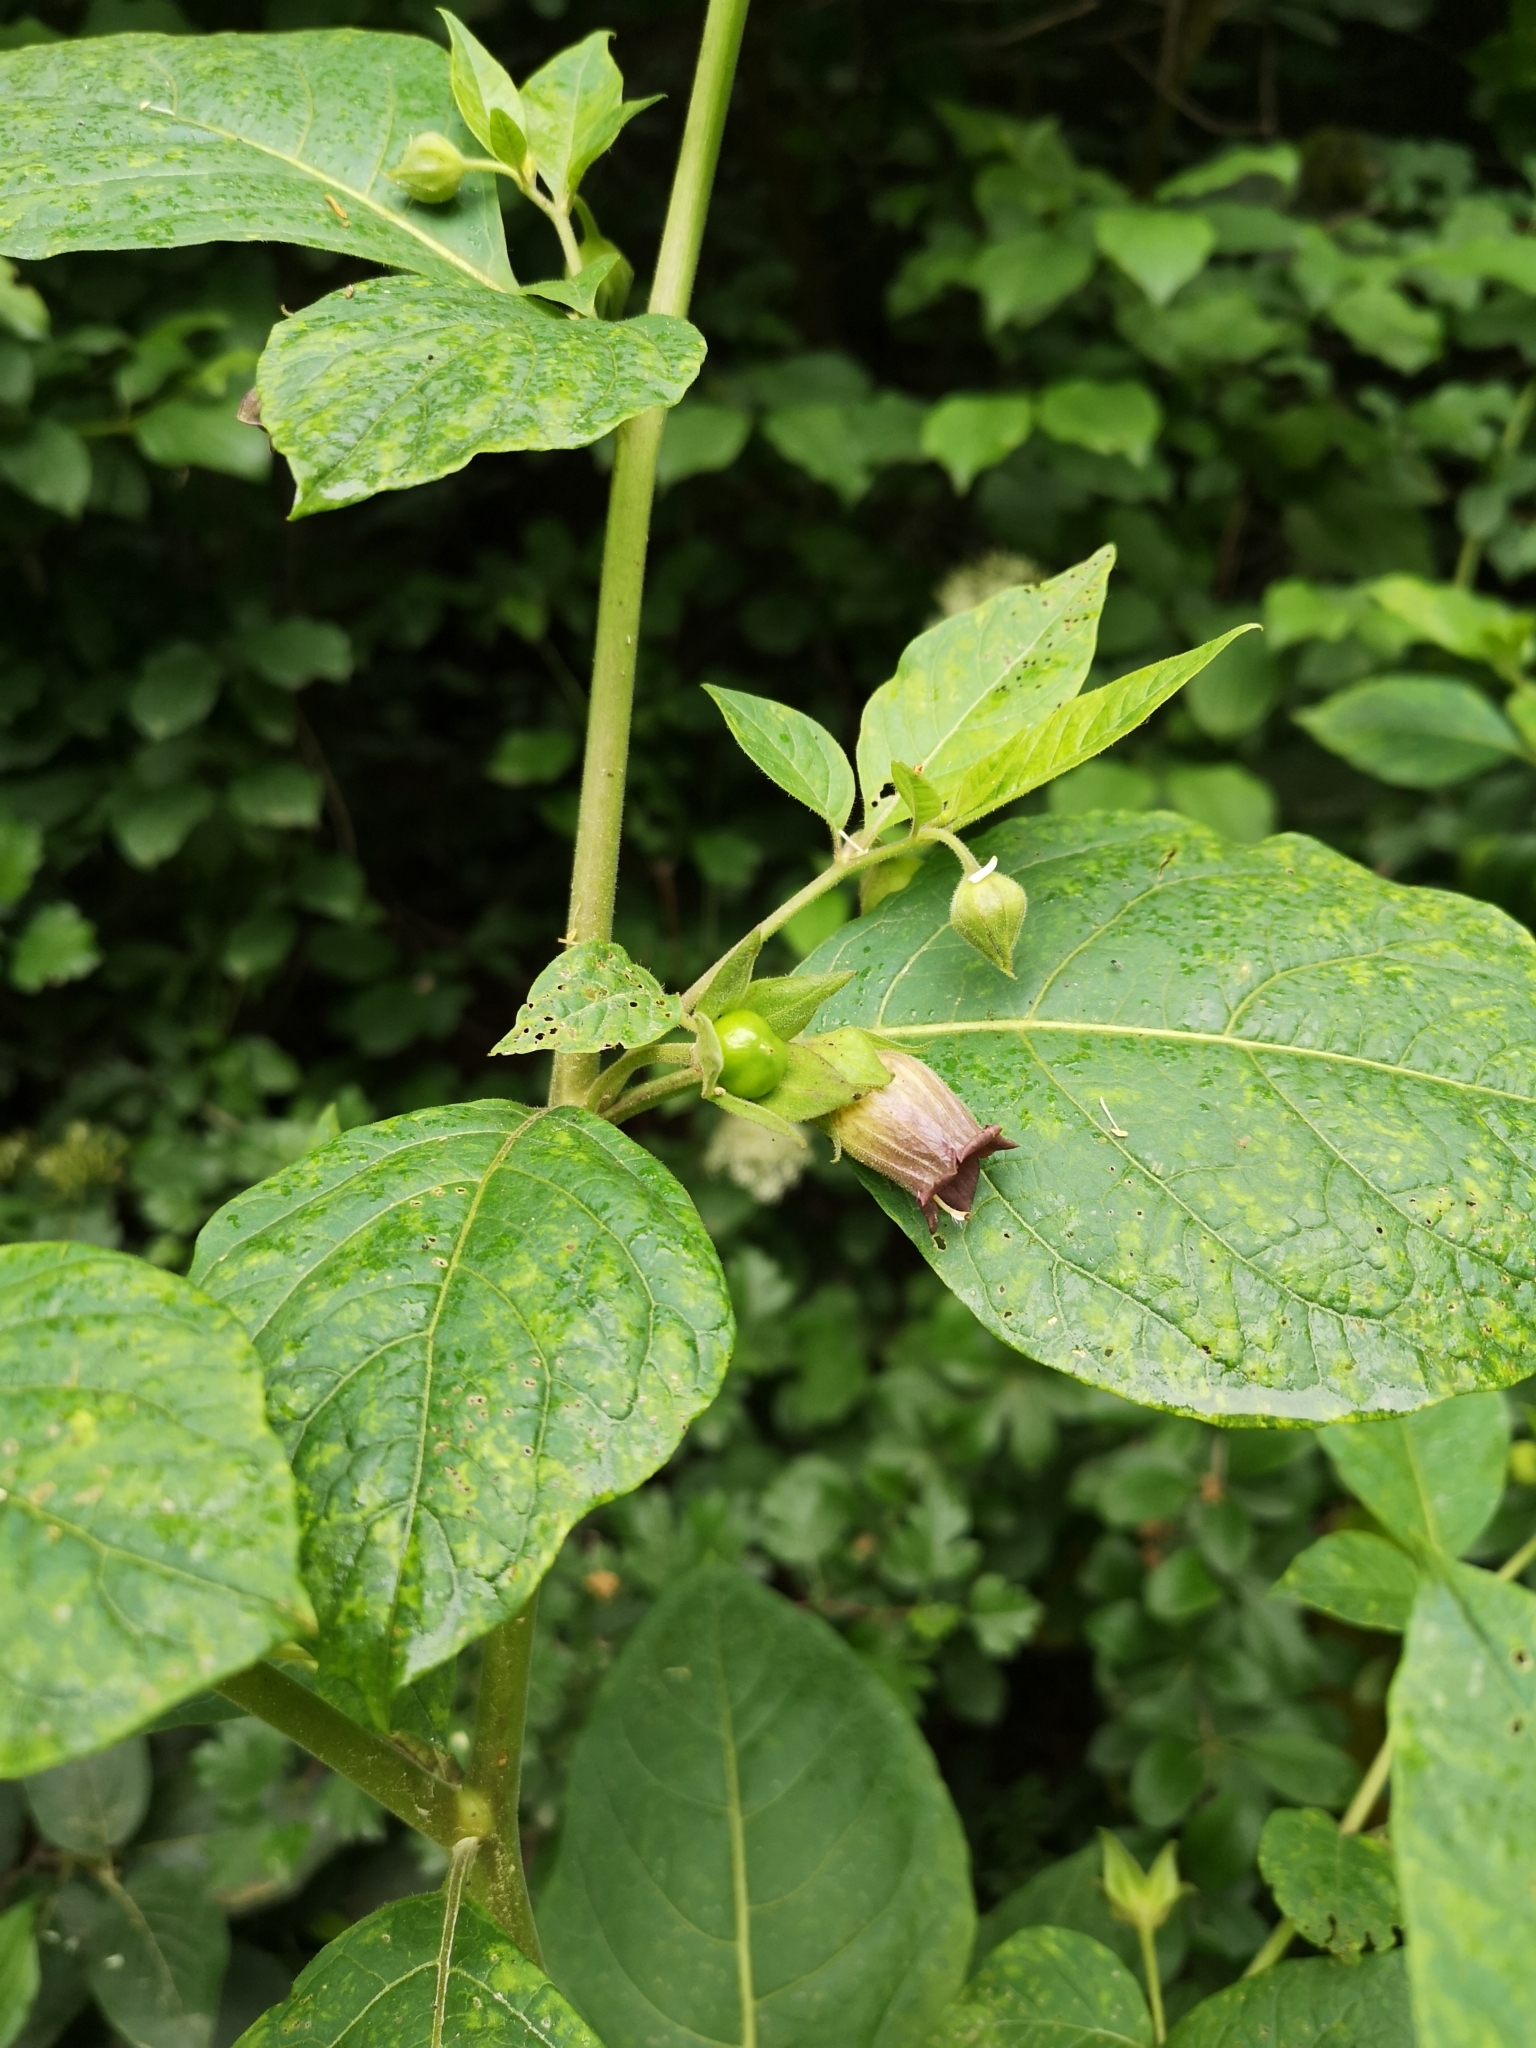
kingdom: Plantae
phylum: Tracheophyta
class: Magnoliopsida
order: Solanales
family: Solanaceae
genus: Atropa
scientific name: Atropa belladonna
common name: Deadly nightshade
